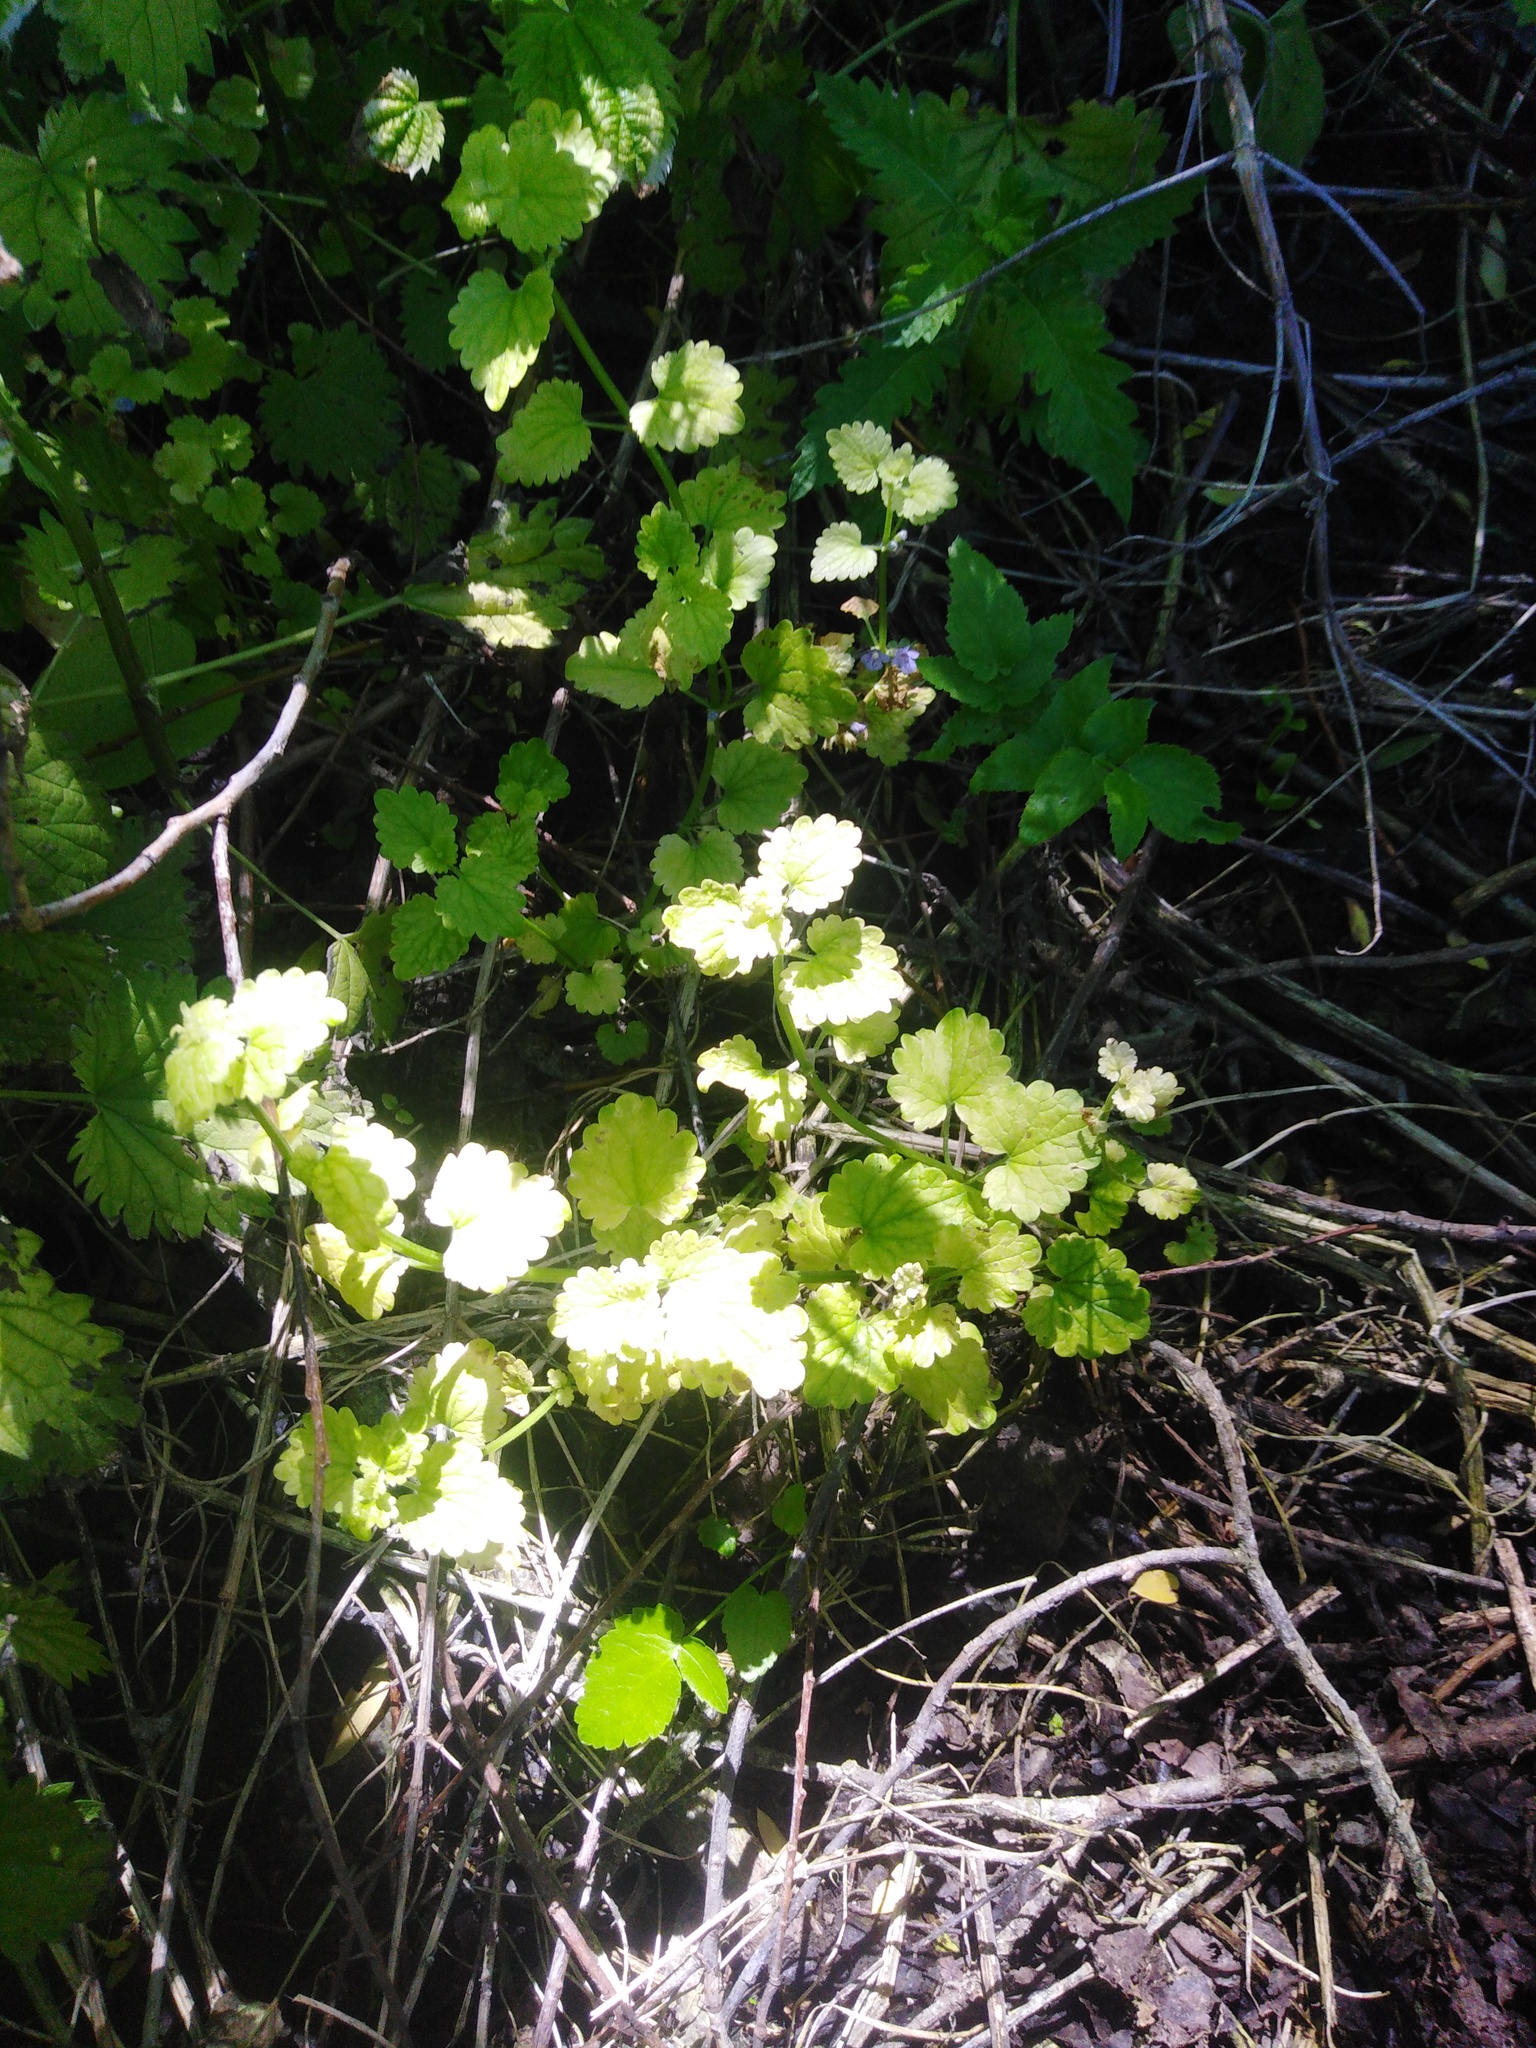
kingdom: Plantae
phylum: Tracheophyta
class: Magnoliopsida
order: Lamiales
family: Lamiaceae
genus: Glechoma
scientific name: Glechoma hederacea
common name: Ground ivy
